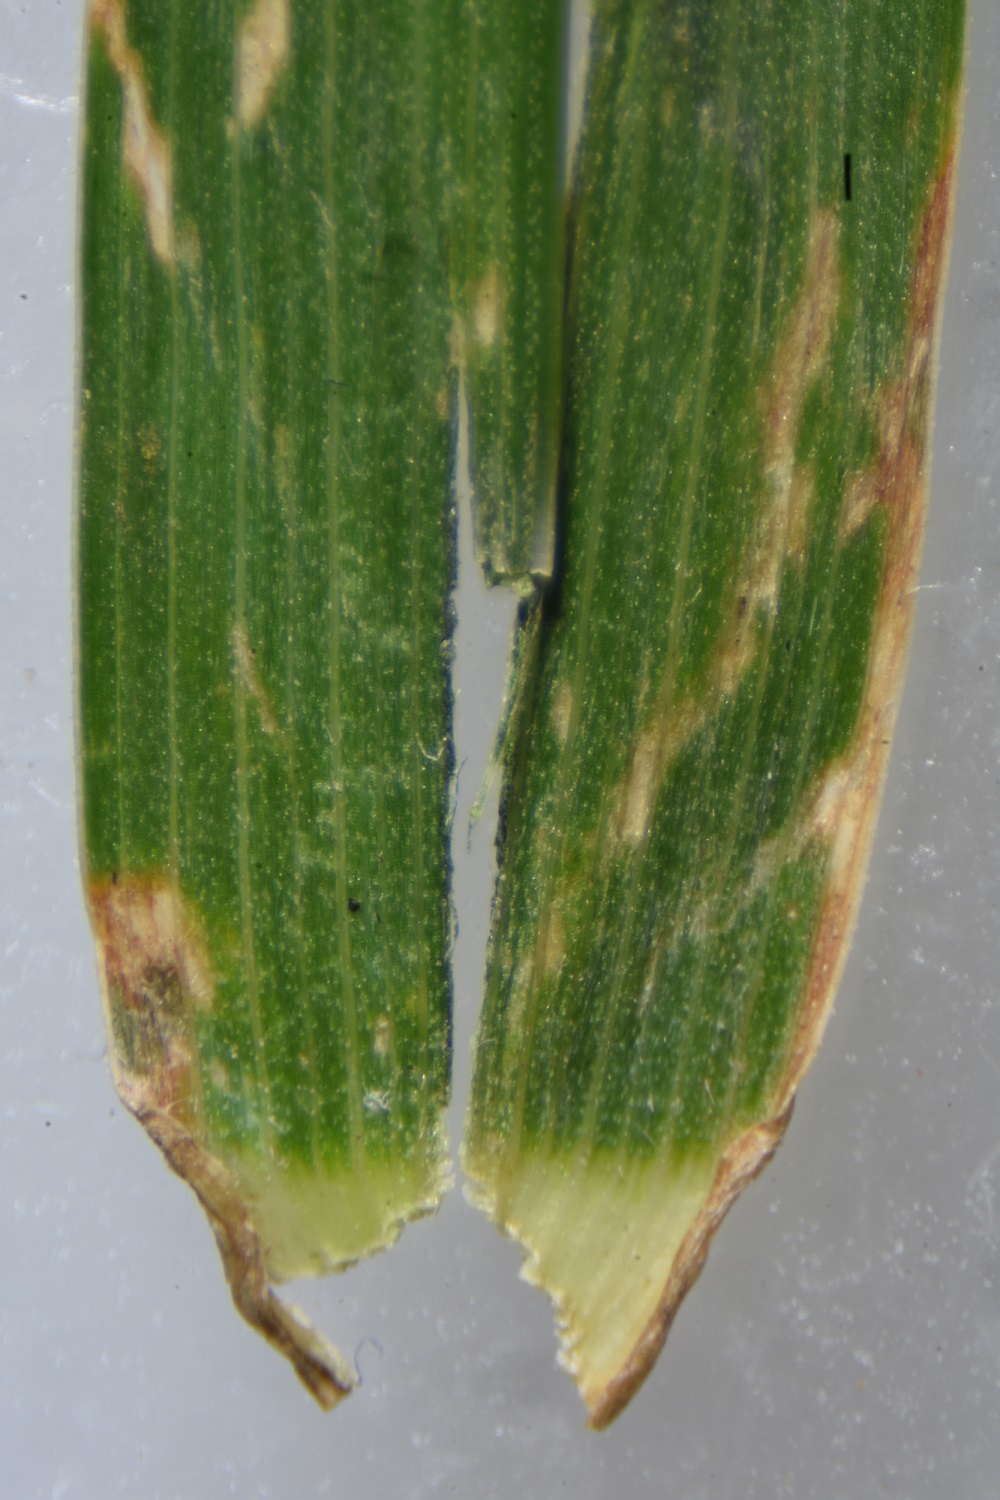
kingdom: Plantae
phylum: Tracheophyta
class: Liliopsida
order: Poales
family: Poaceae
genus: Dactylis
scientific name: Dactylis glomerata
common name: Orchardgrass
